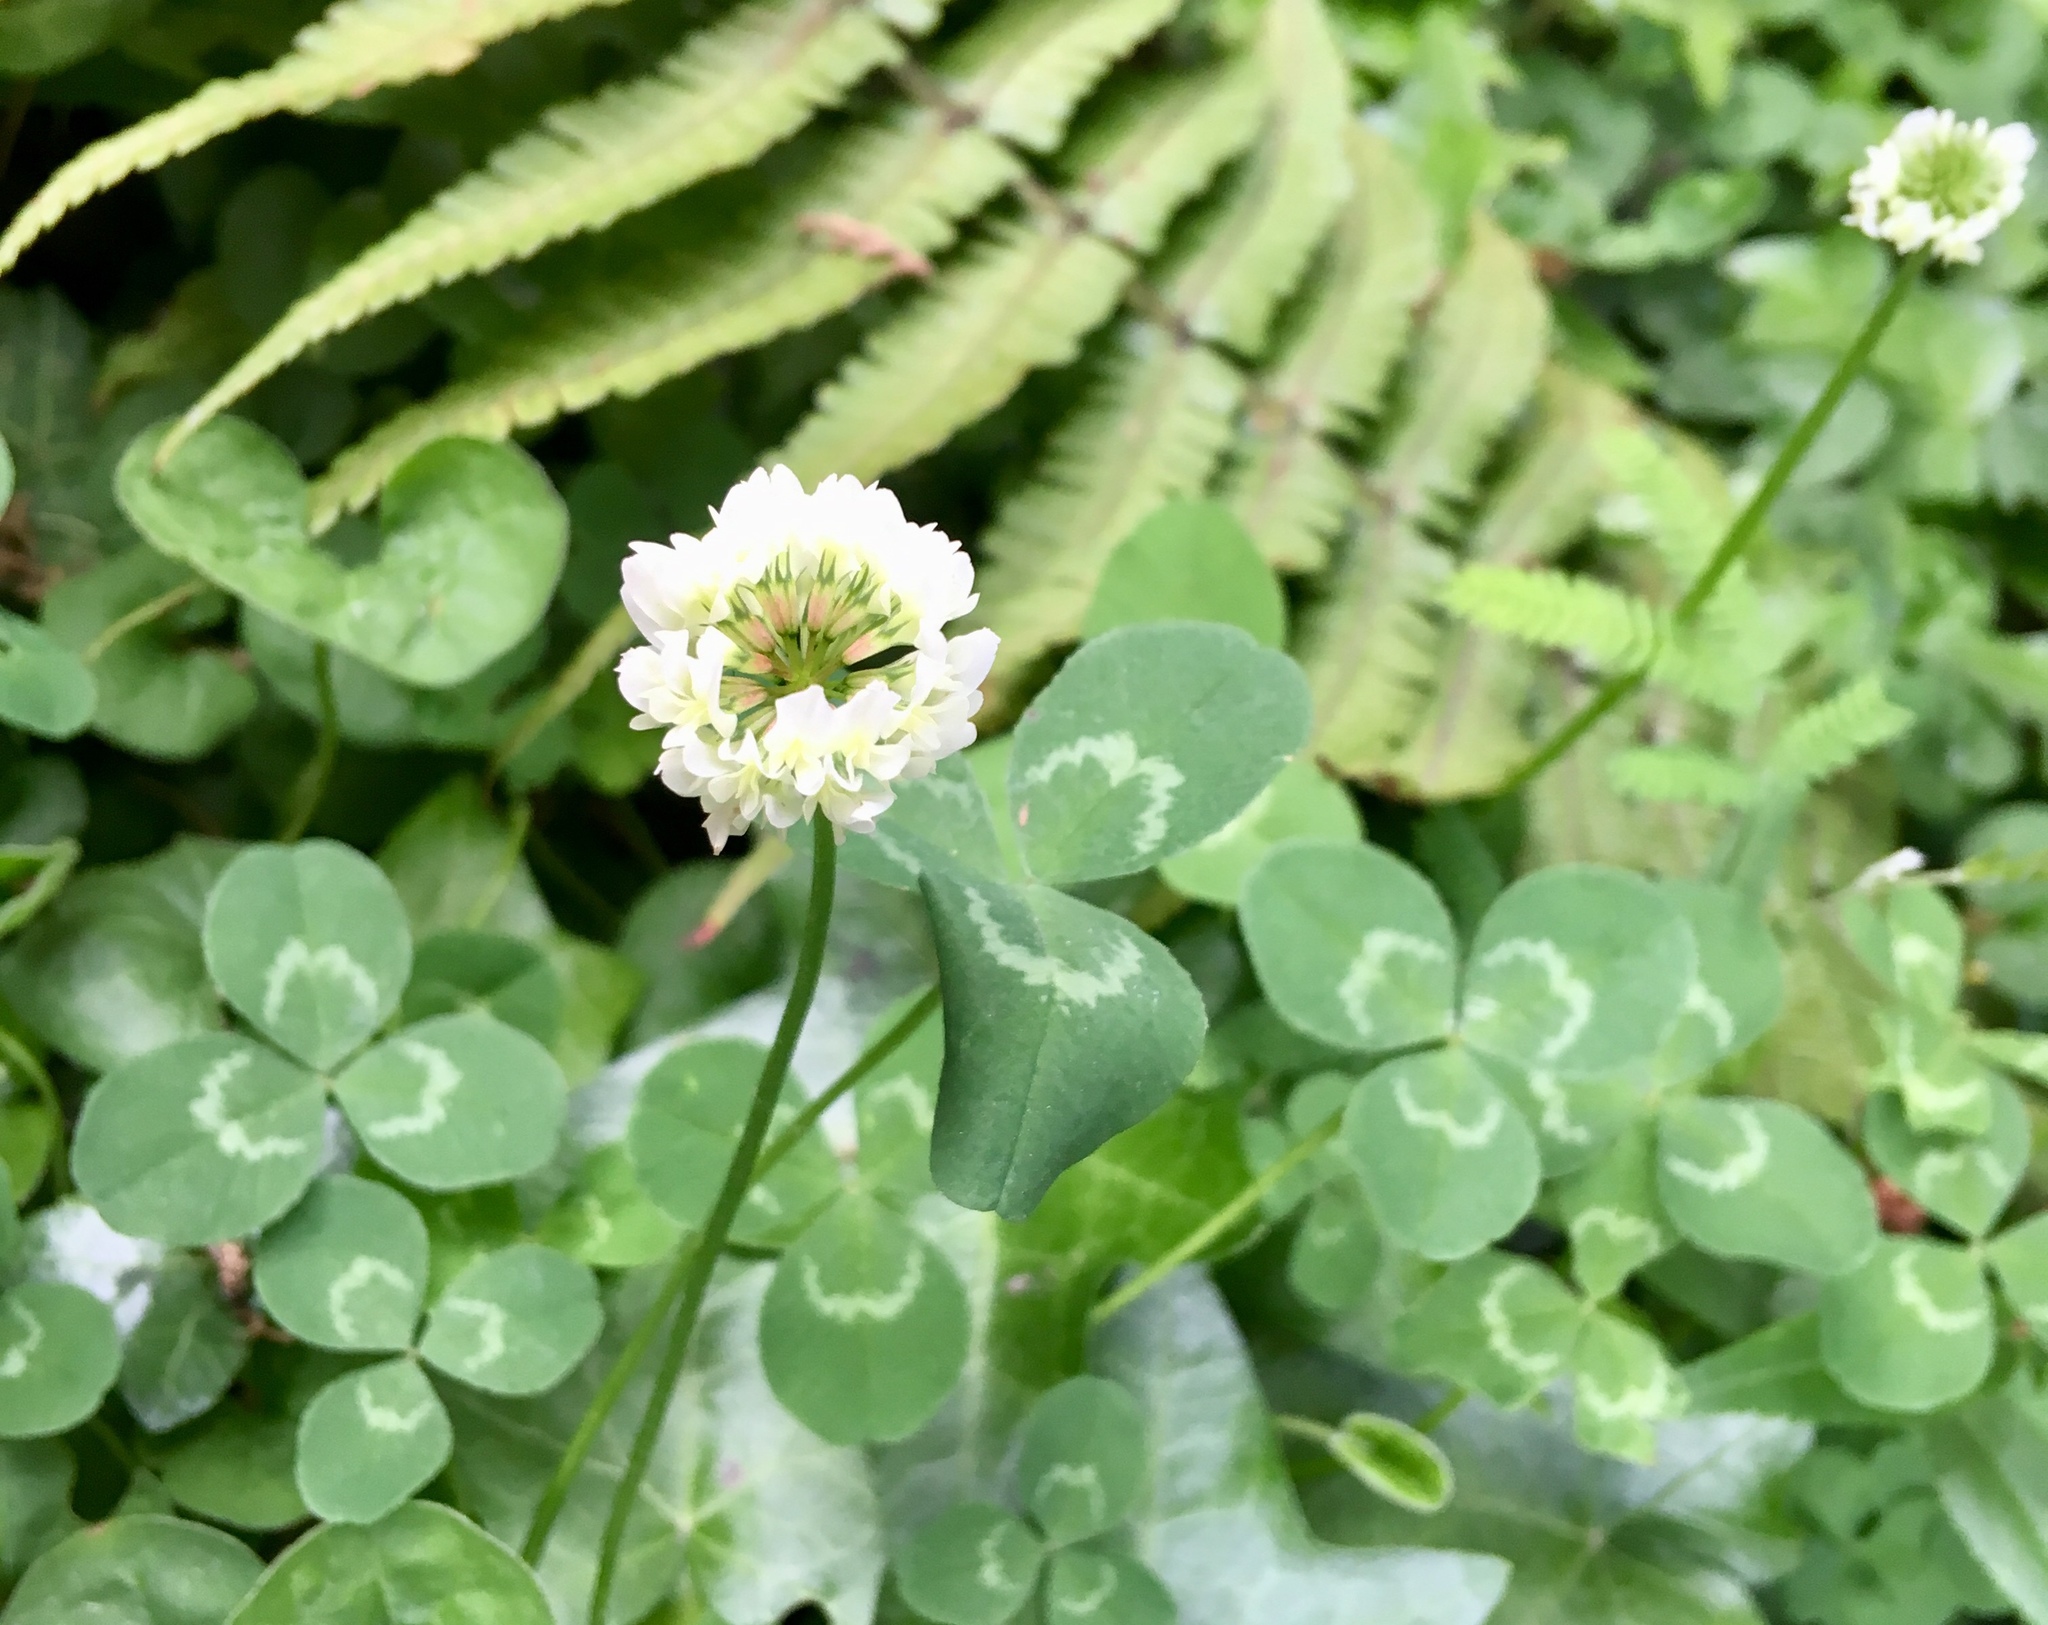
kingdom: Plantae
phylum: Tracheophyta
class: Magnoliopsida
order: Fabales
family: Fabaceae
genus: Trifolium
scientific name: Trifolium repens
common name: White clover
